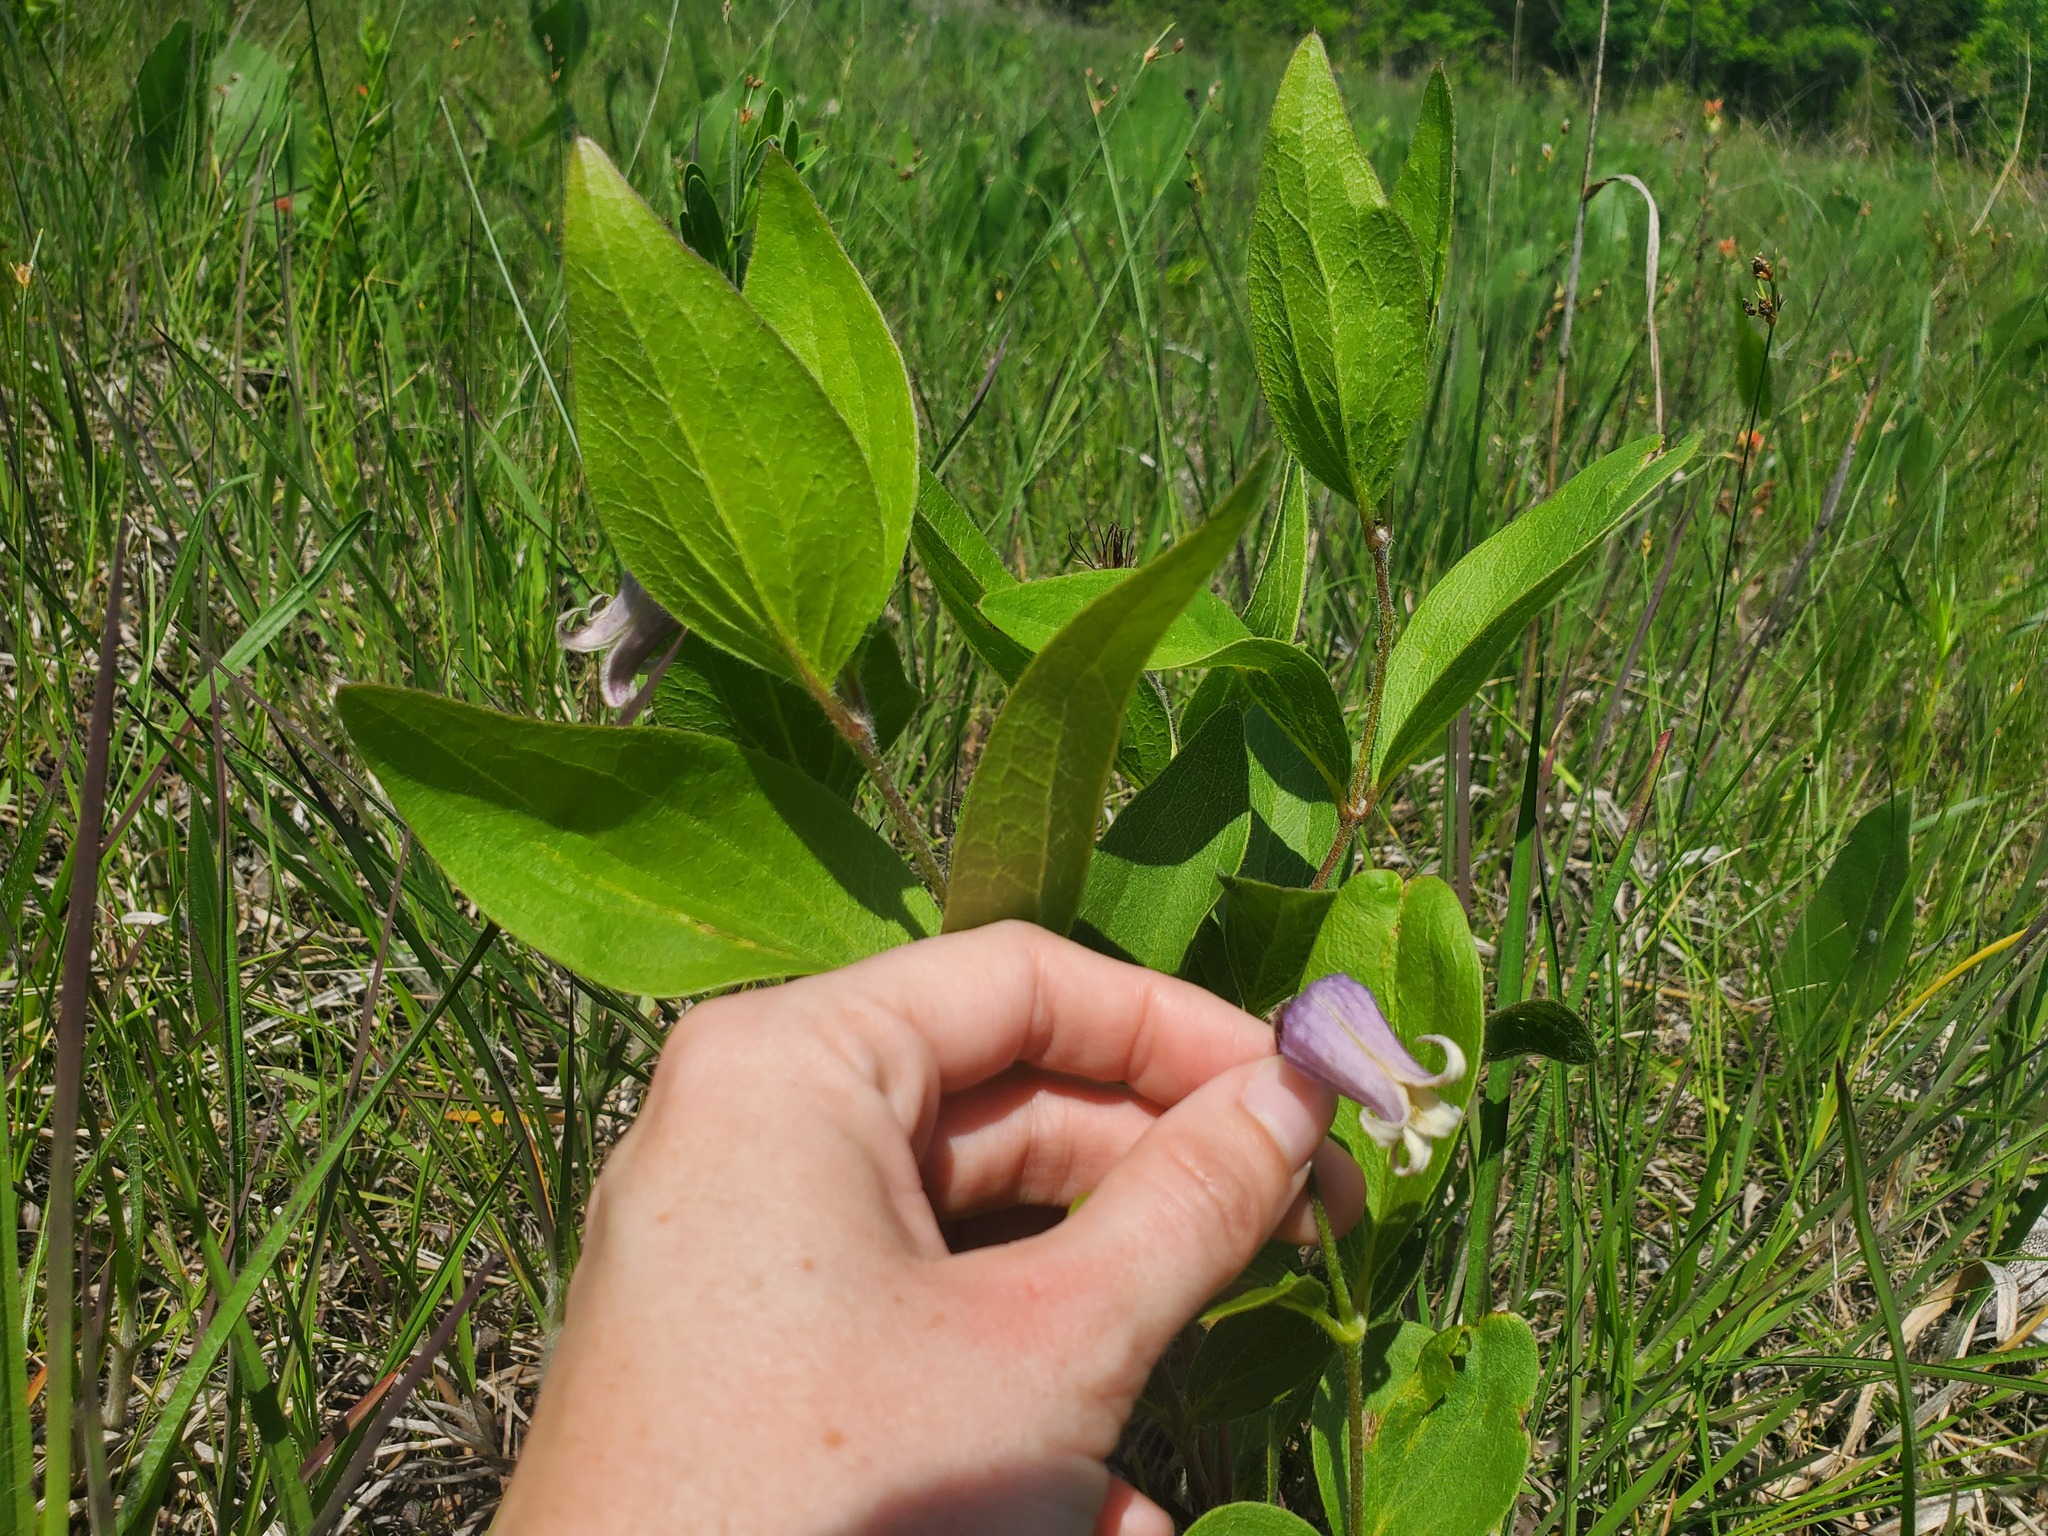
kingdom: Plantae
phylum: Tracheophyta
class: Magnoliopsida
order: Ranunculales
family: Ranunculaceae
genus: Clematis
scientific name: Clematis fremontii
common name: Fremont's clematis
